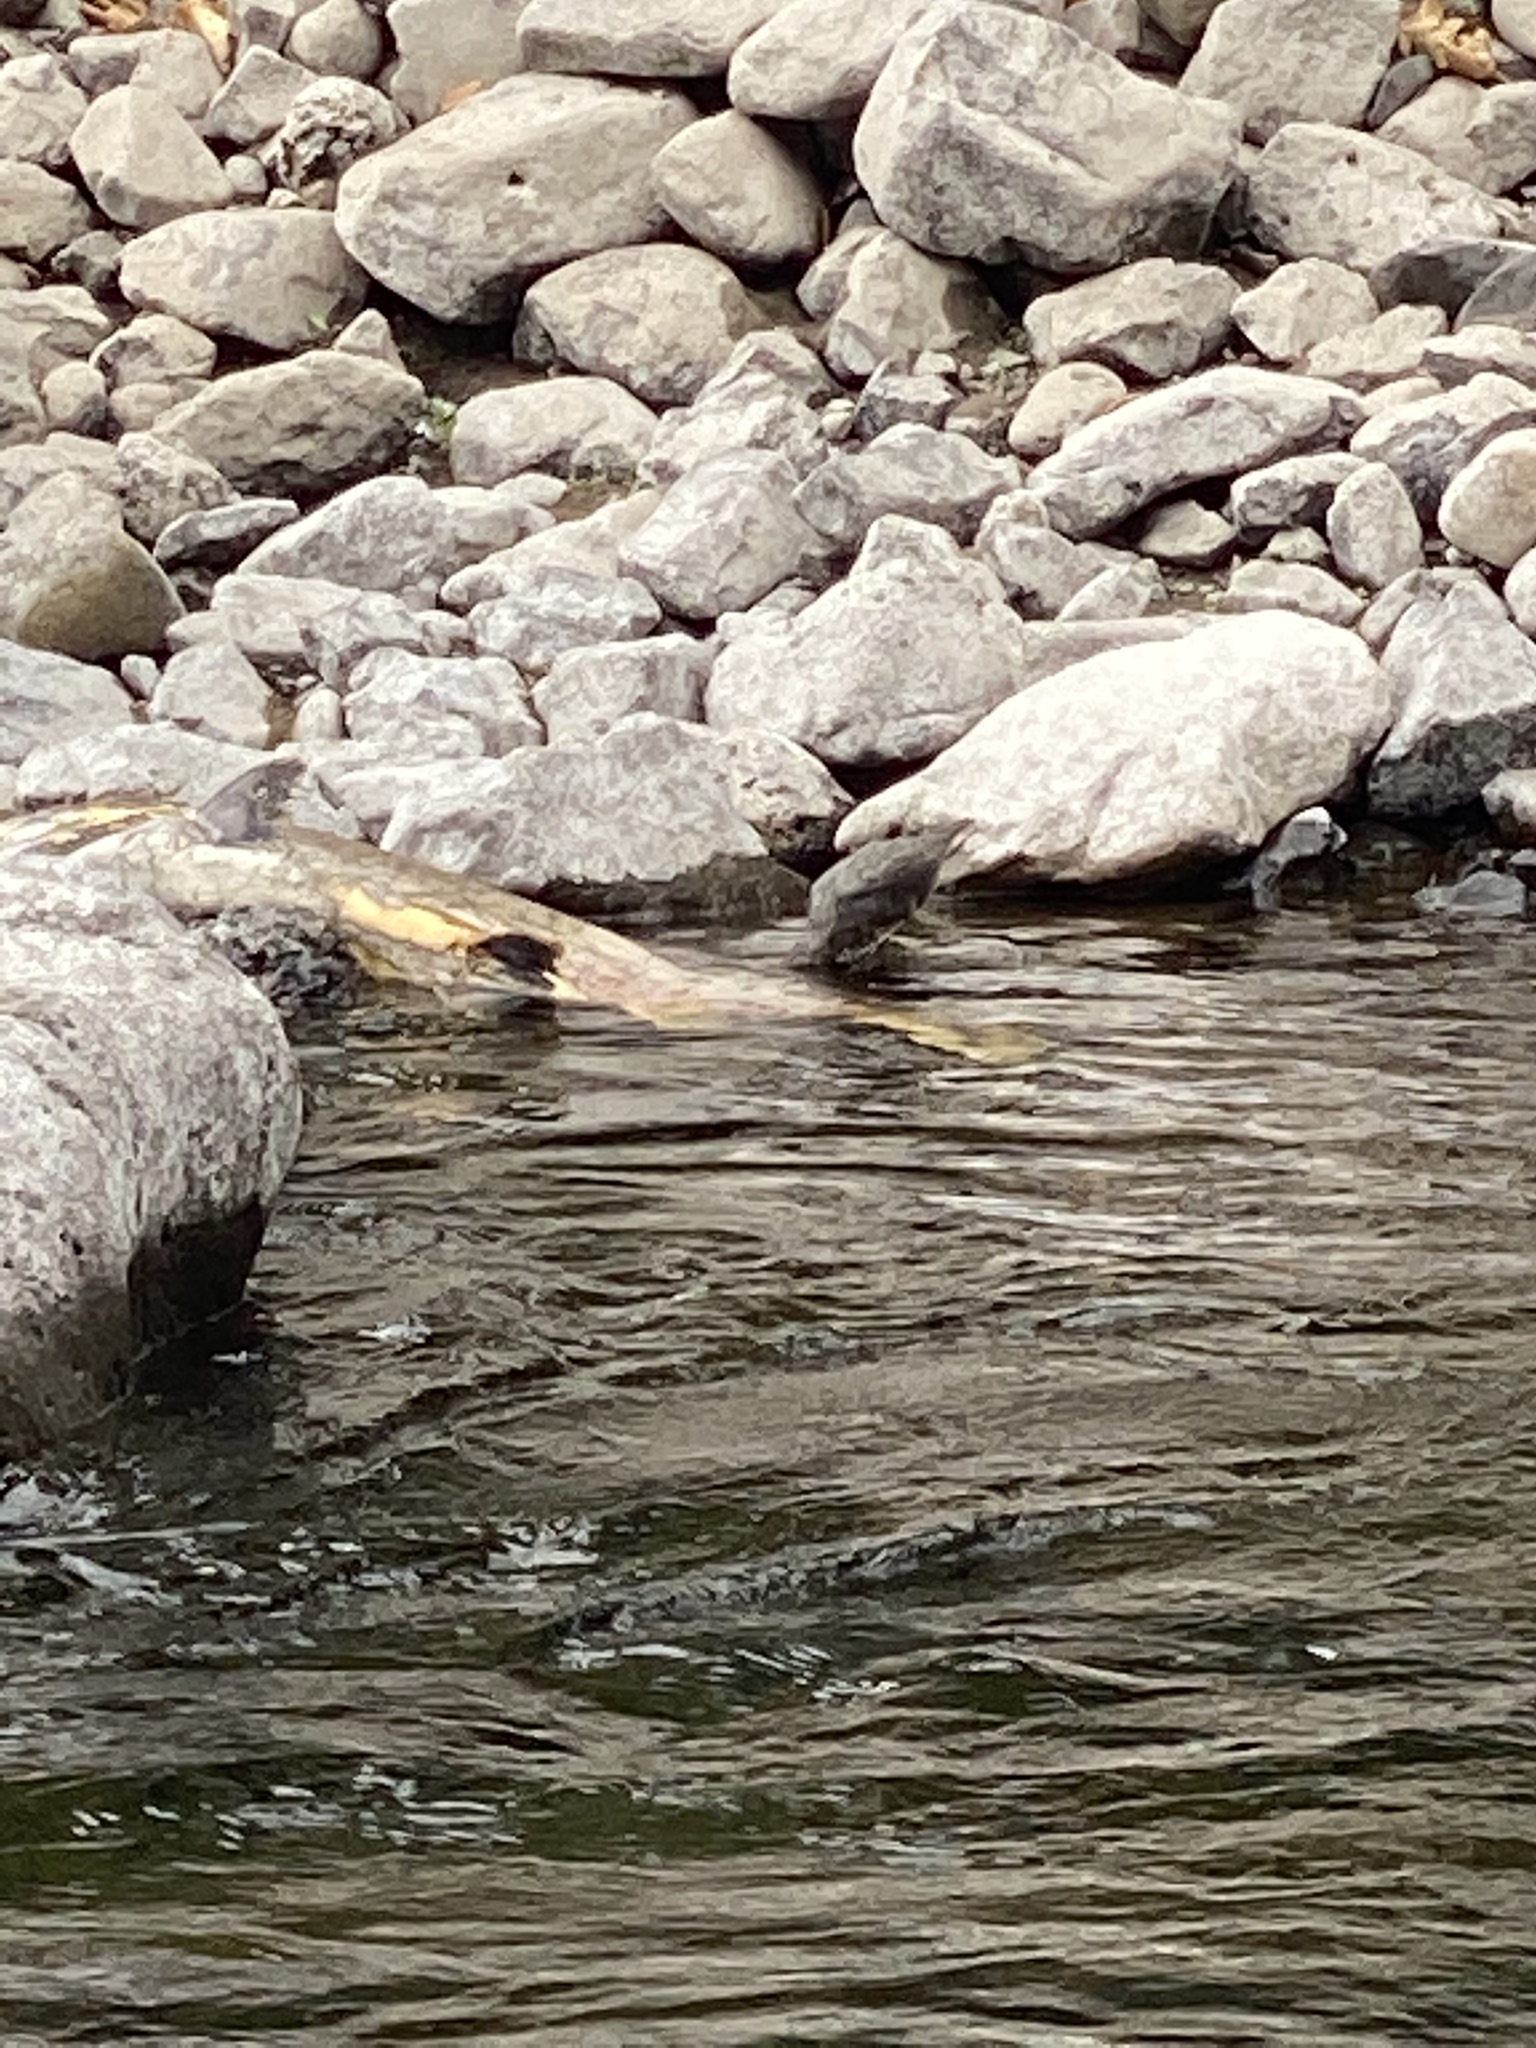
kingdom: Animalia
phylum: Chordata
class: Aves
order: Passeriformes
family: Cinclidae
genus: Cinclus
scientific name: Cinclus mexicanus
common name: American dipper
